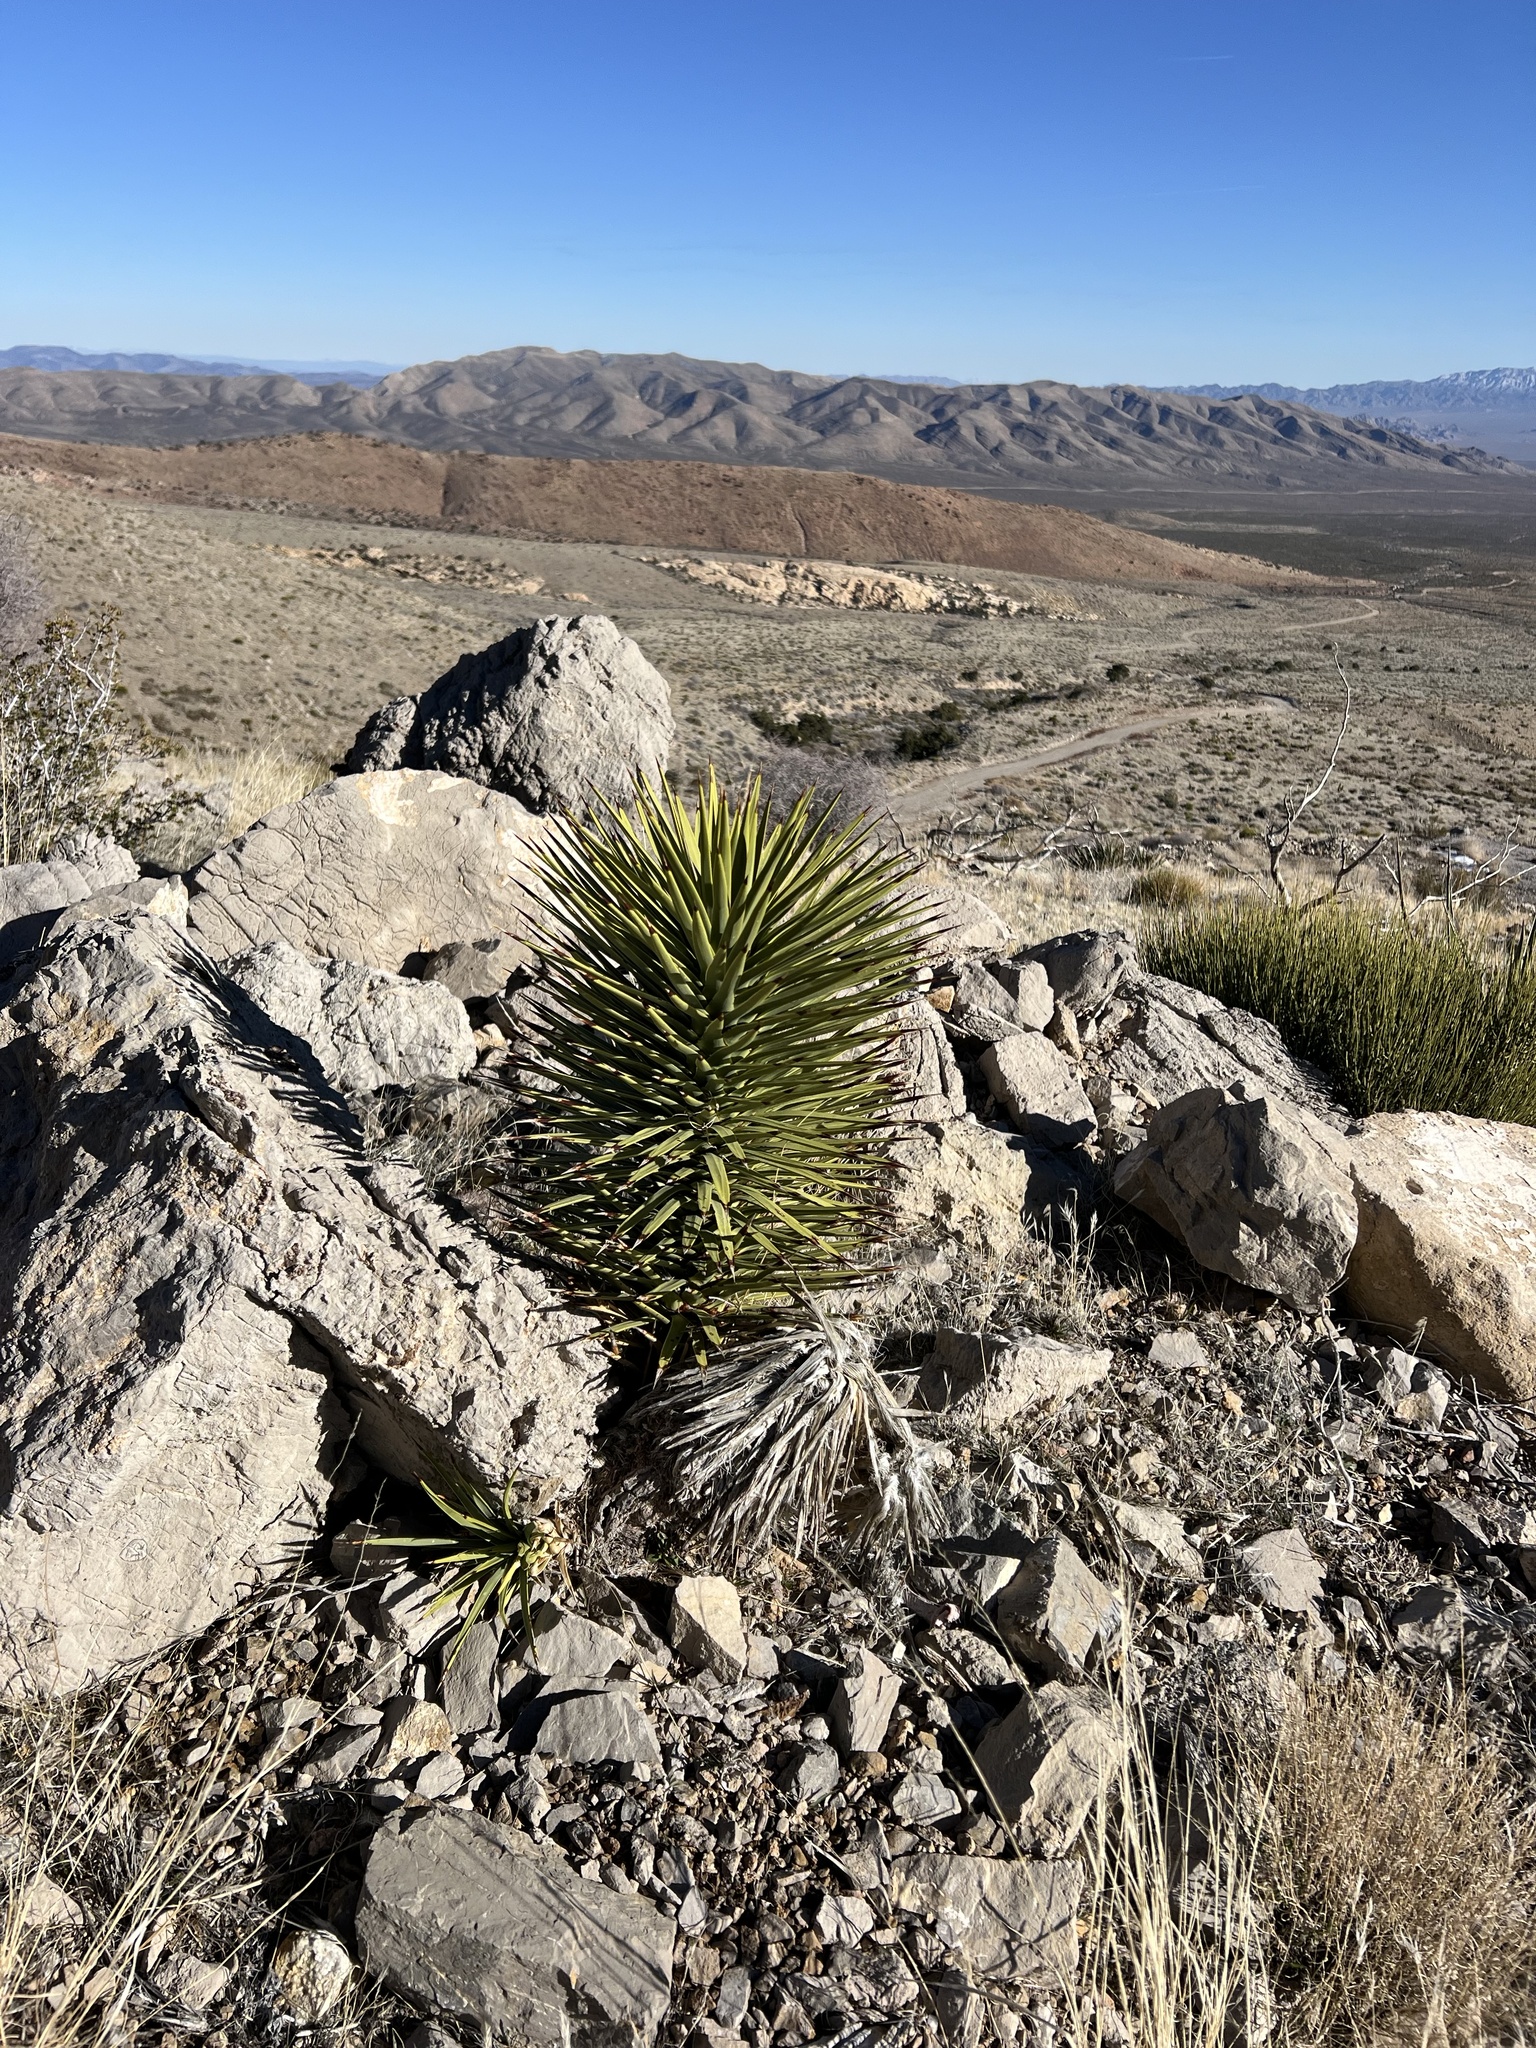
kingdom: Plantae
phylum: Tracheophyta
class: Liliopsida
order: Asparagales
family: Asparagaceae
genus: Yucca
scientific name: Yucca brevifolia
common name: Joshua tree
